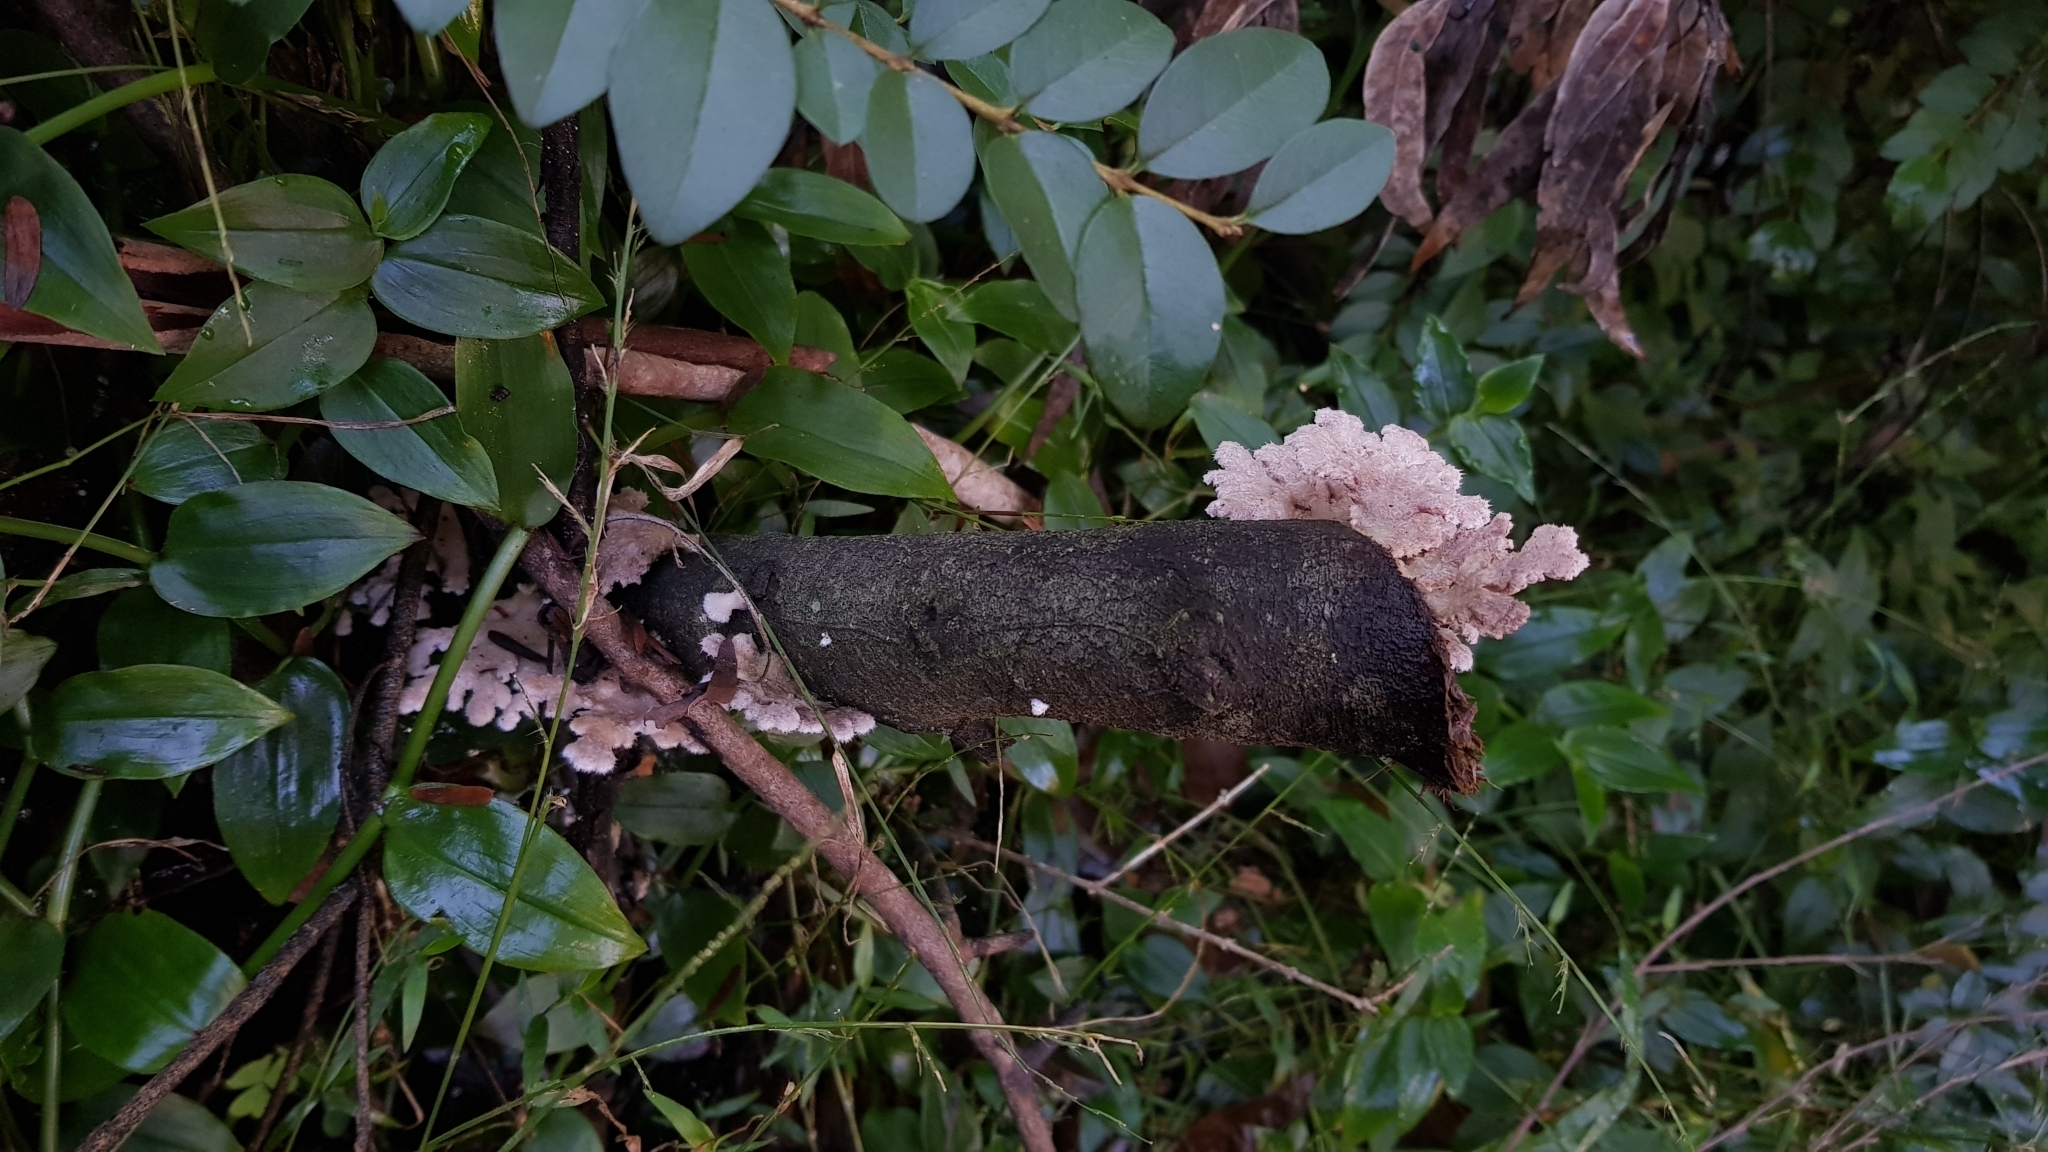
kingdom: Fungi
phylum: Basidiomycota
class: Agaricomycetes
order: Agaricales
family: Schizophyllaceae
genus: Schizophyllum
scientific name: Schizophyllum commune
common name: Common porecrust
